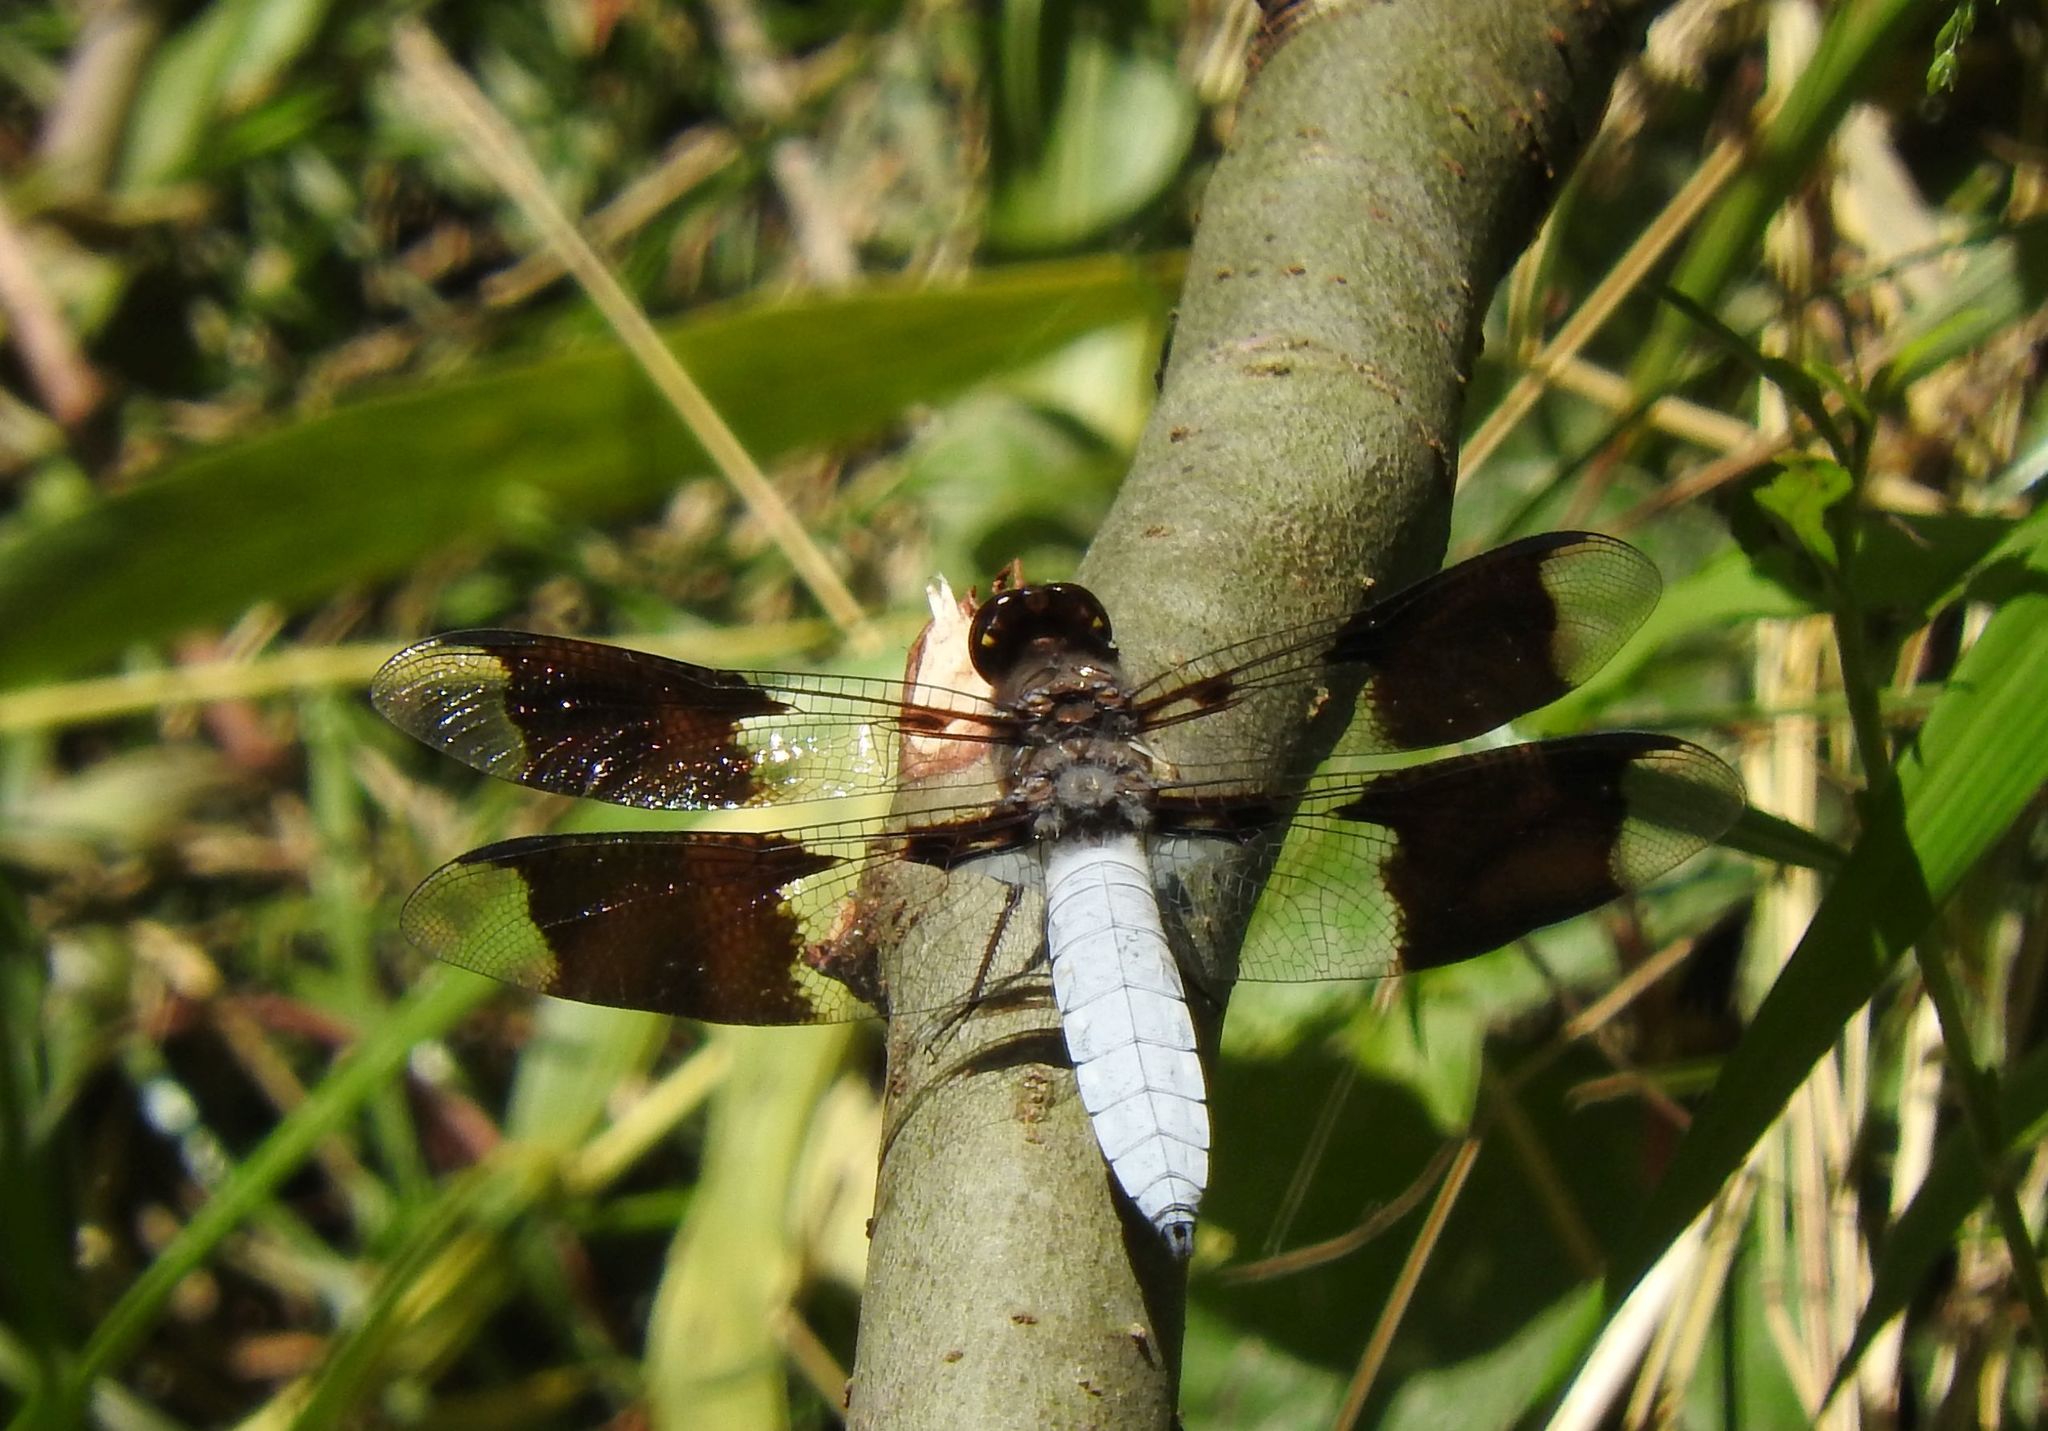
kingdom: Animalia
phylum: Arthropoda
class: Insecta
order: Odonata
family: Libellulidae
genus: Plathemis
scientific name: Plathemis lydia
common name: Common whitetail
